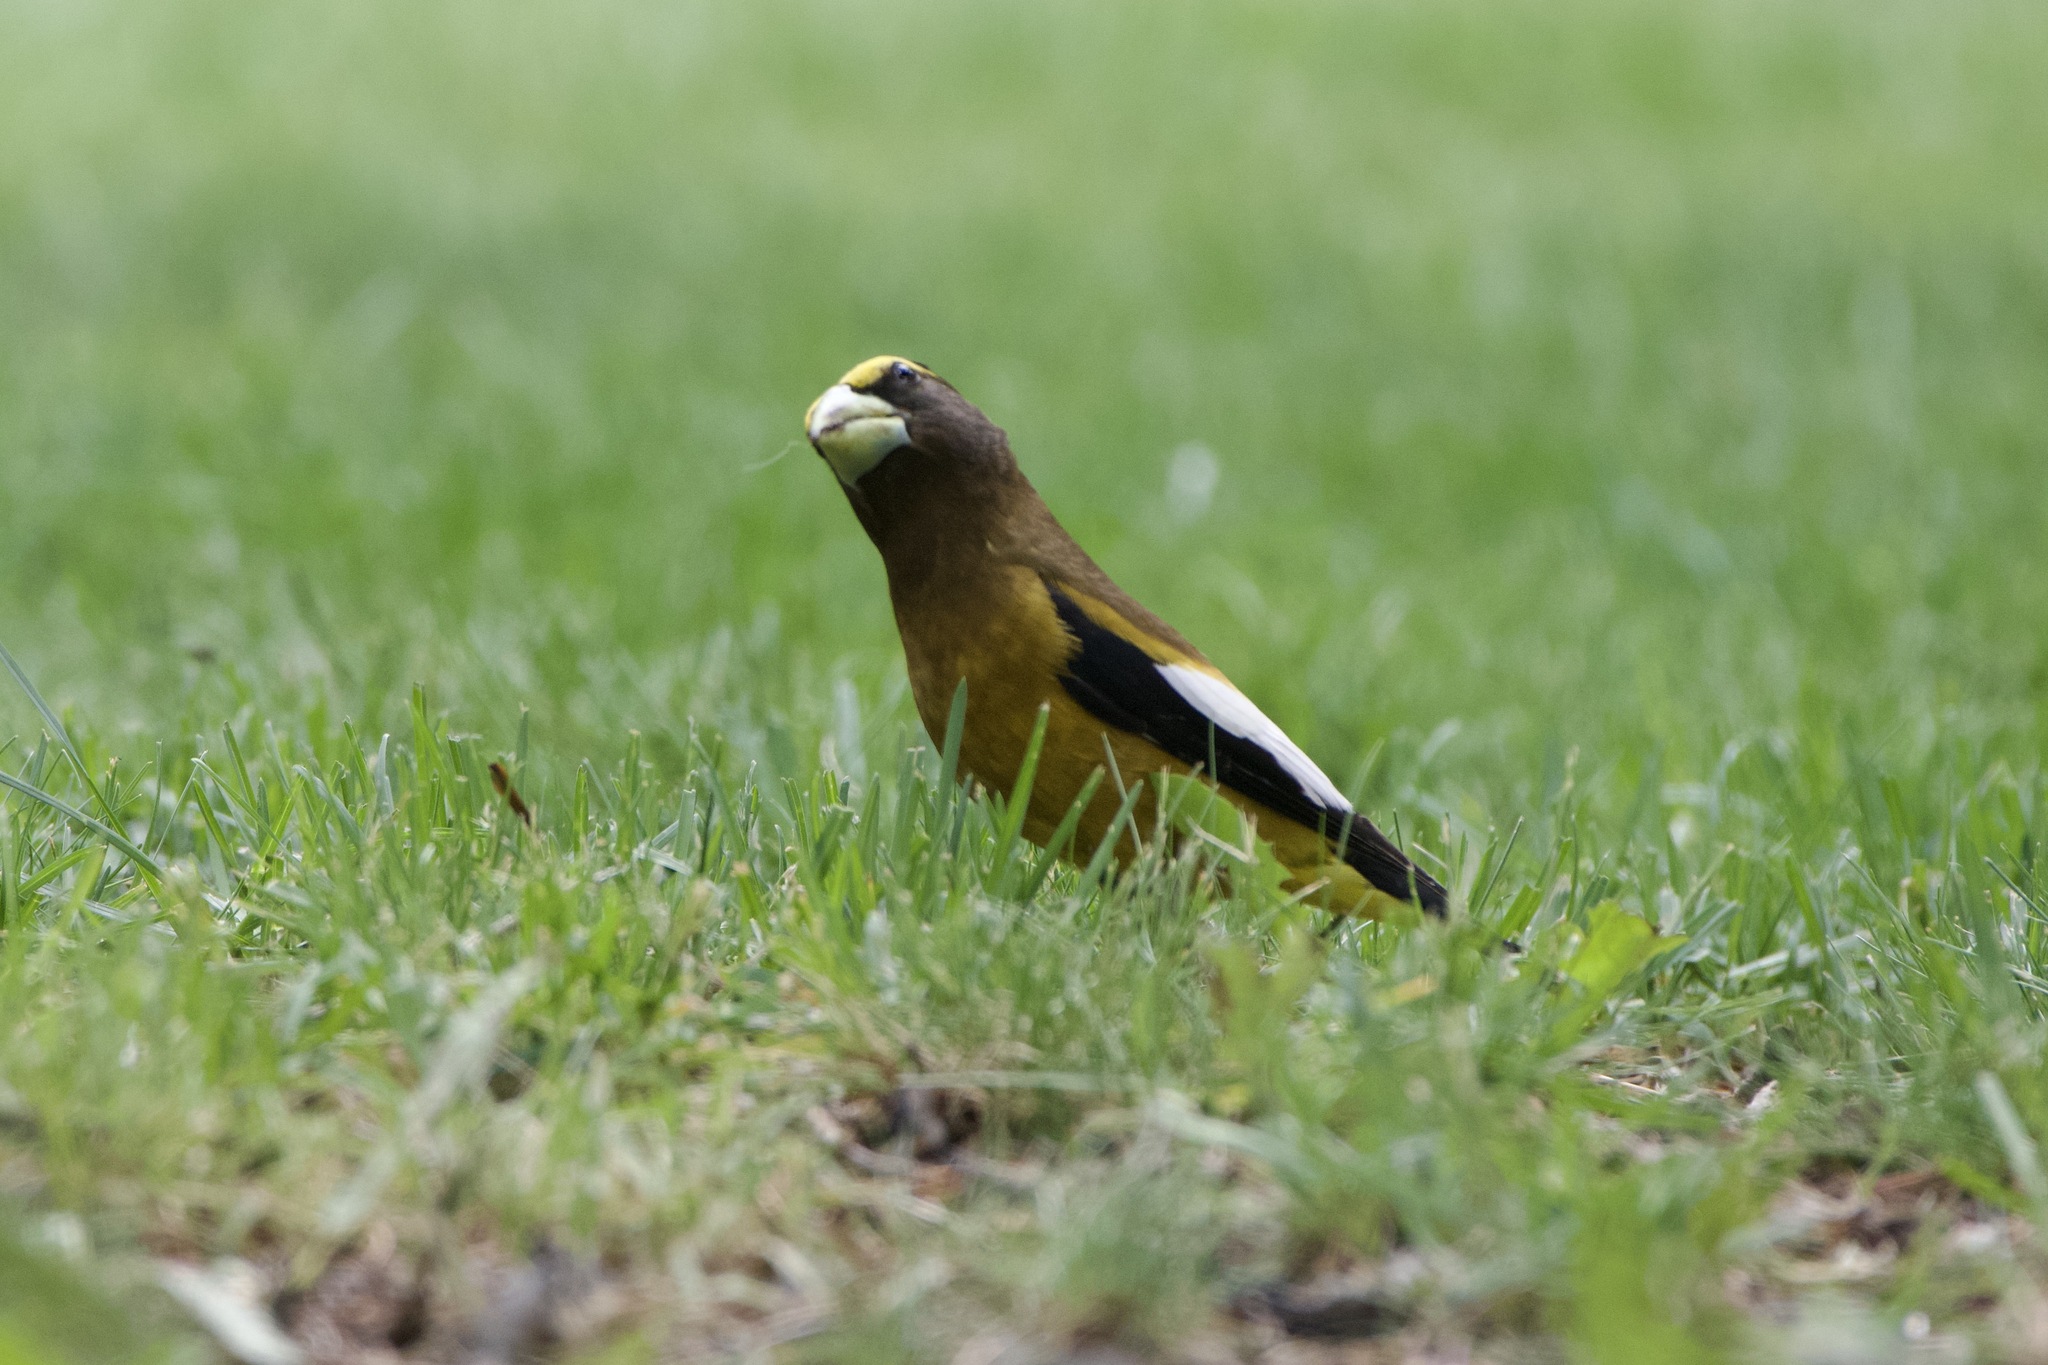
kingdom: Animalia
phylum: Chordata
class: Aves
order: Passeriformes
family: Fringillidae
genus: Hesperiphona
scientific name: Hesperiphona vespertina
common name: Evening grosbeak
